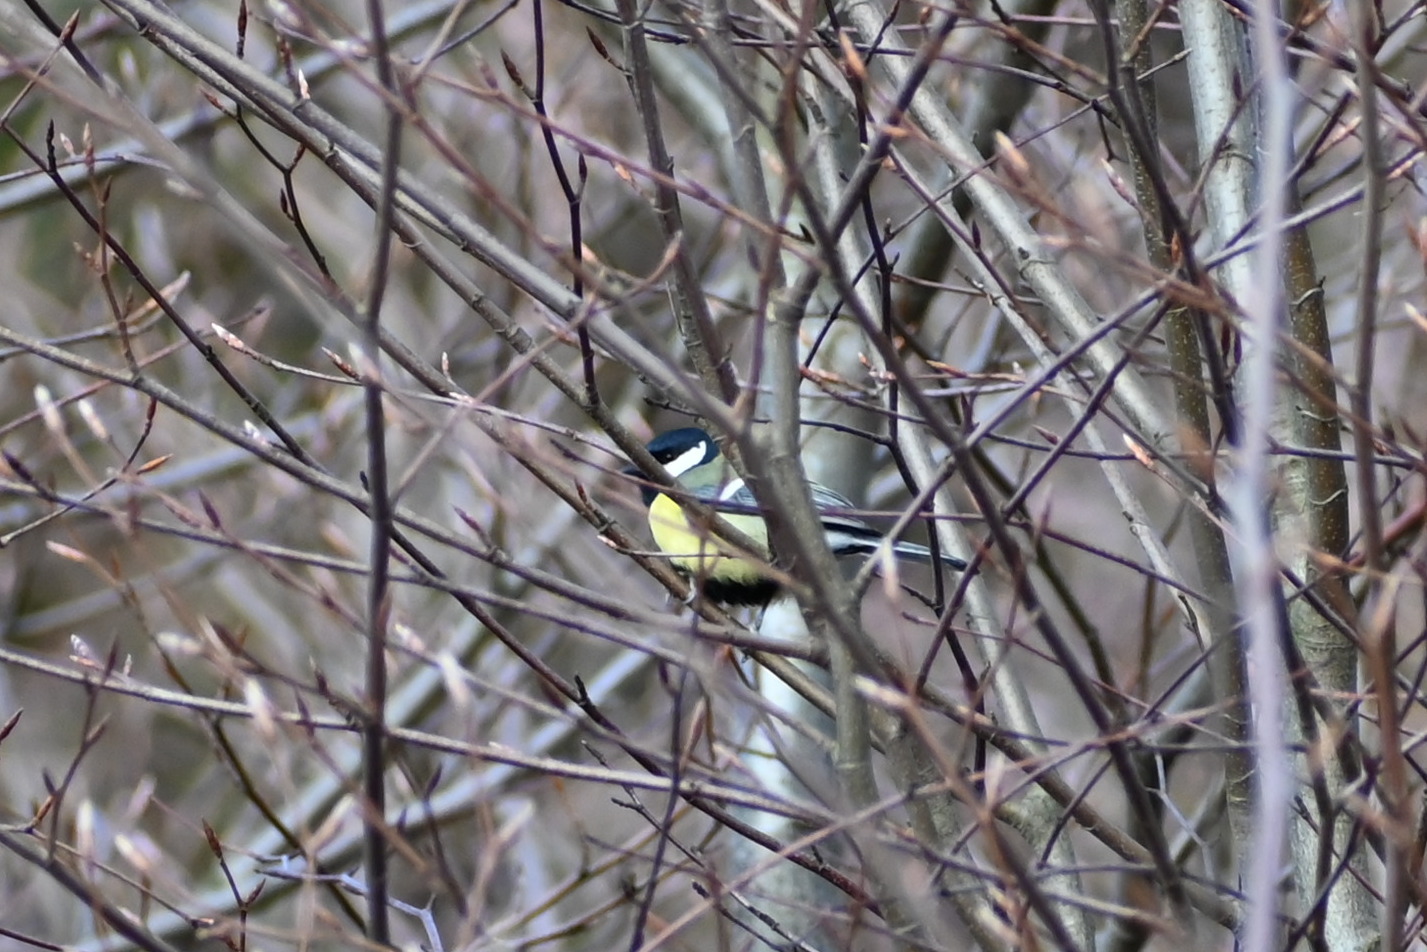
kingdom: Animalia
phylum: Chordata
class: Aves
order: Passeriformes
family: Paridae
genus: Parus
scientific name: Parus major
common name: Great tit
